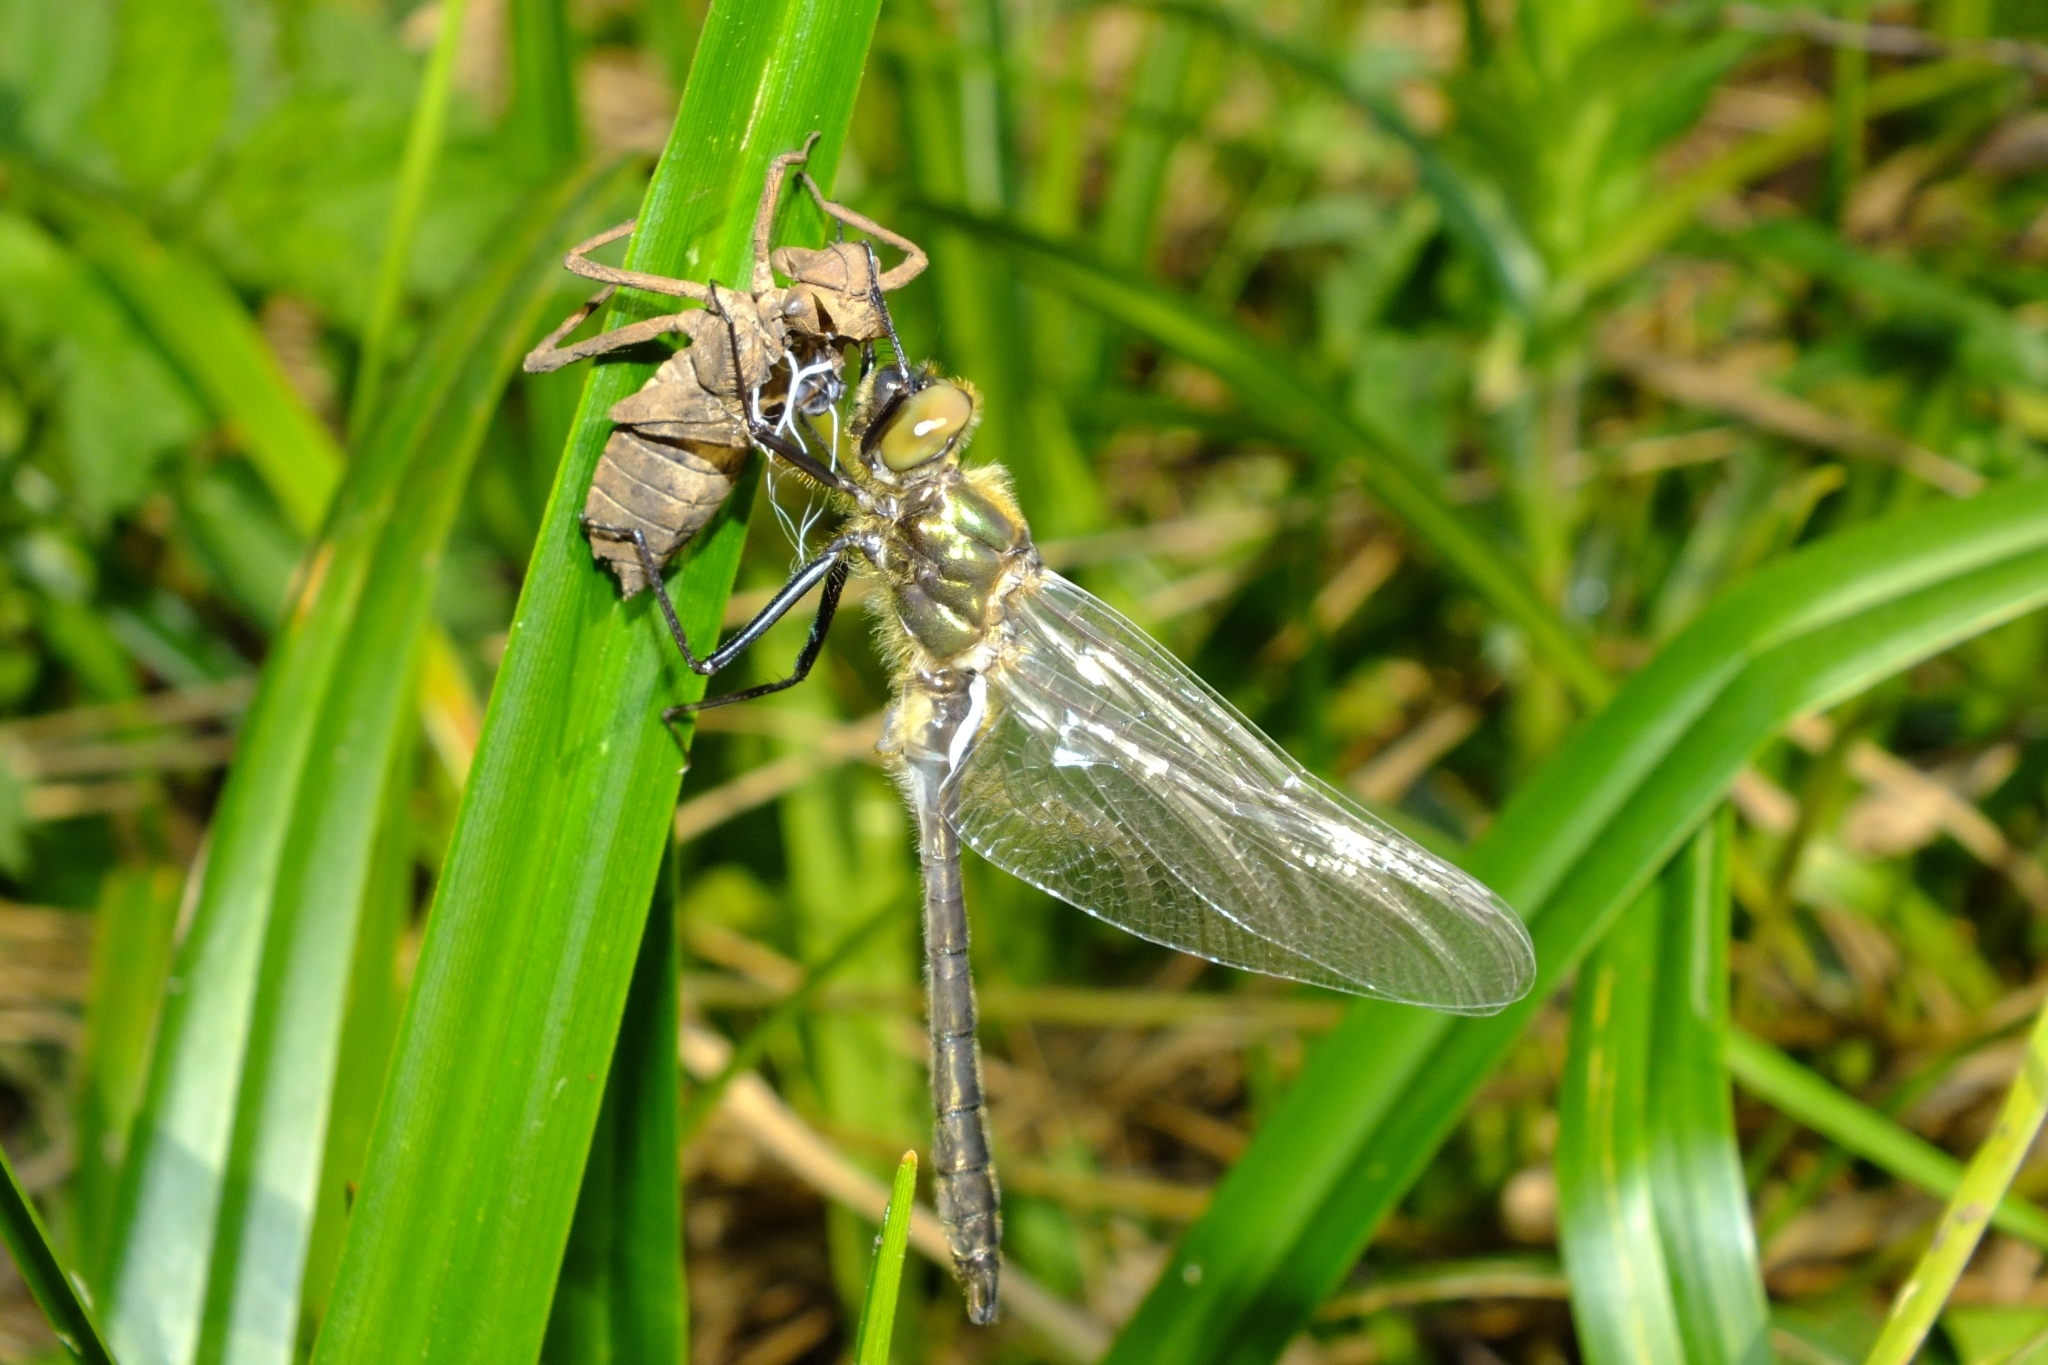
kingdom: Animalia
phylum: Arthropoda
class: Insecta
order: Odonata
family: Corduliidae
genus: Cordulia
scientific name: Cordulia aenea
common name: Downy emerald
